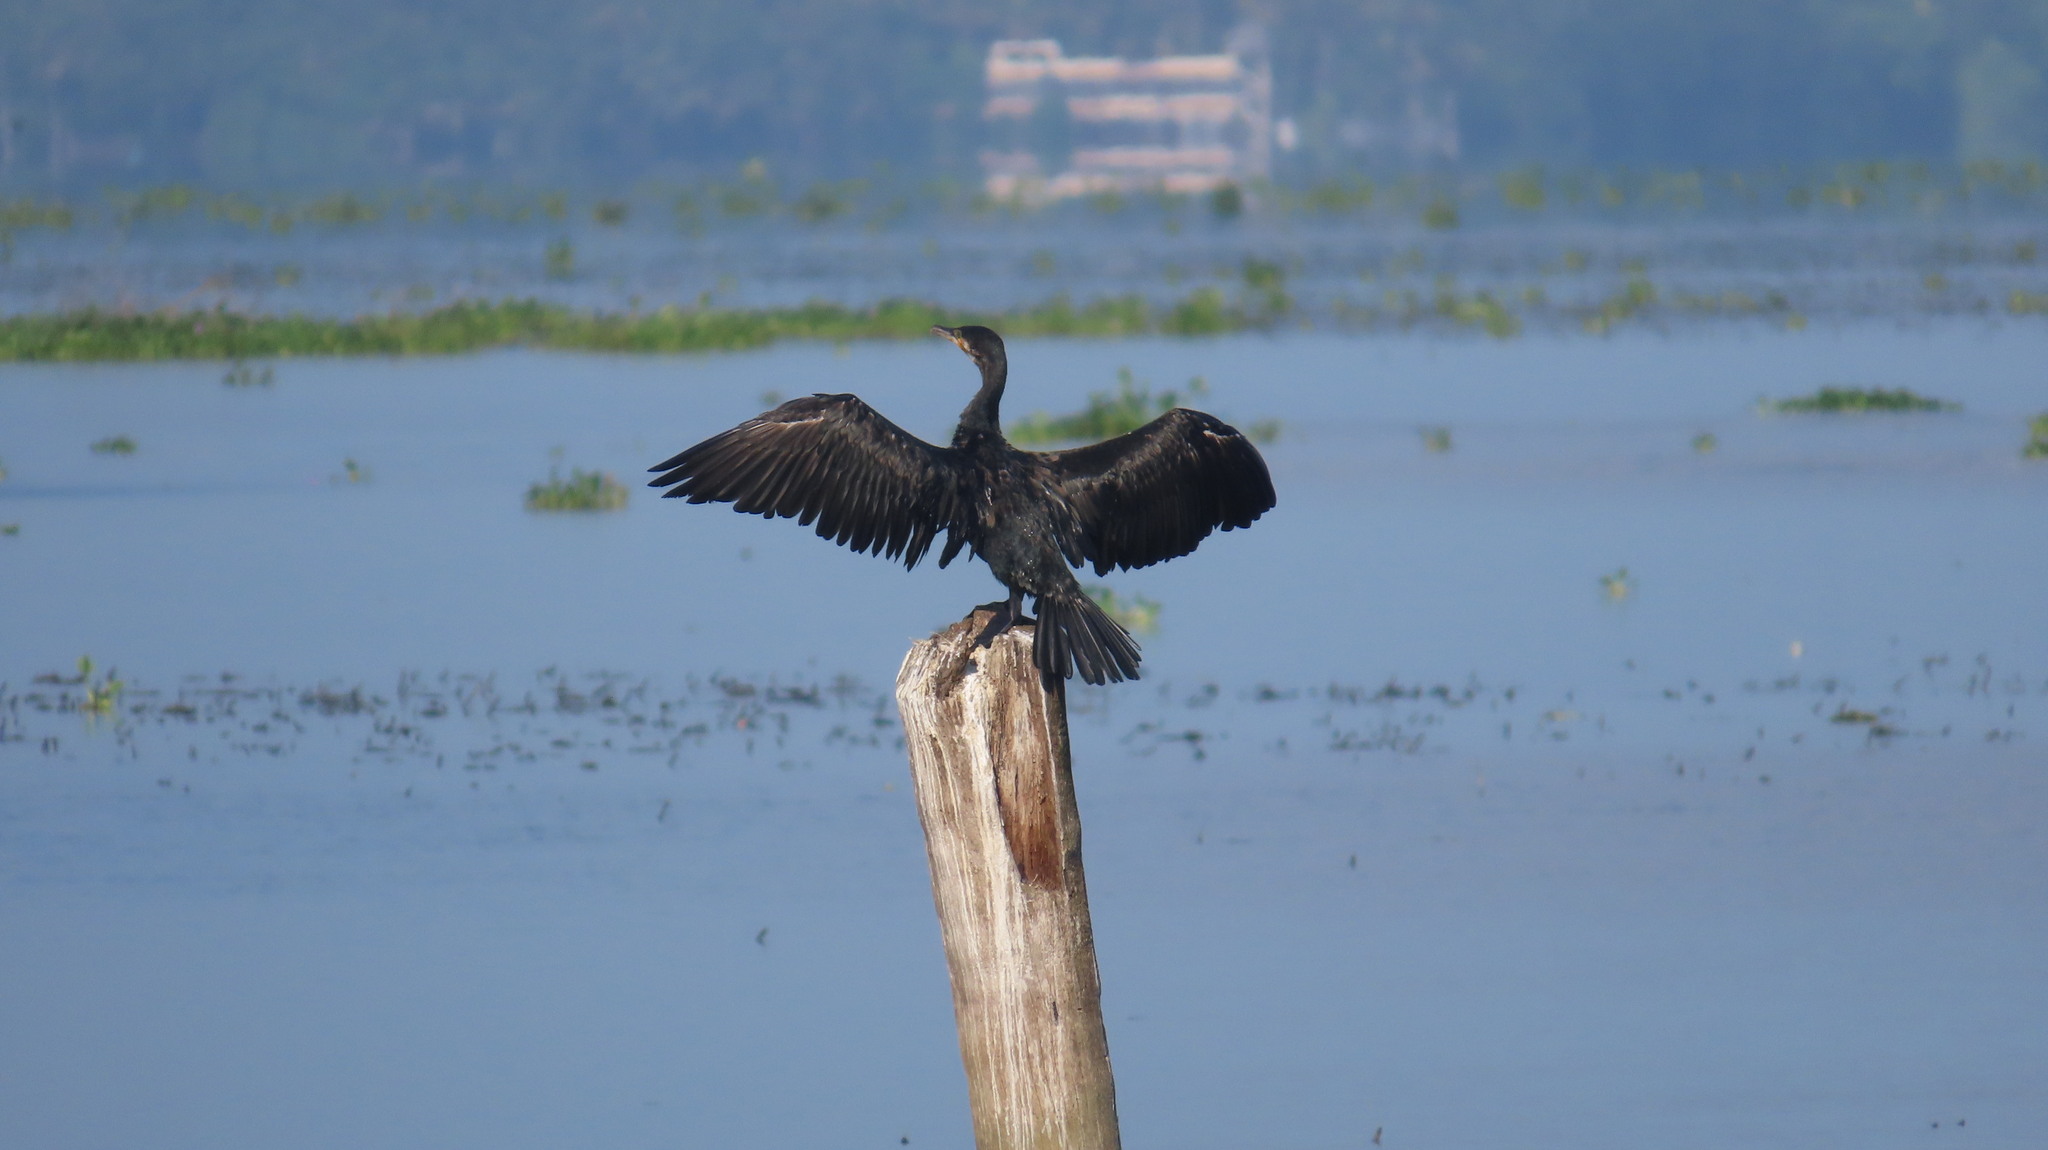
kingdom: Animalia
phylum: Chordata
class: Aves
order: Suliformes
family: Phalacrocoracidae
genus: Phalacrocorax
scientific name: Phalacrocorax fuscicollis
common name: Indian cormorant
